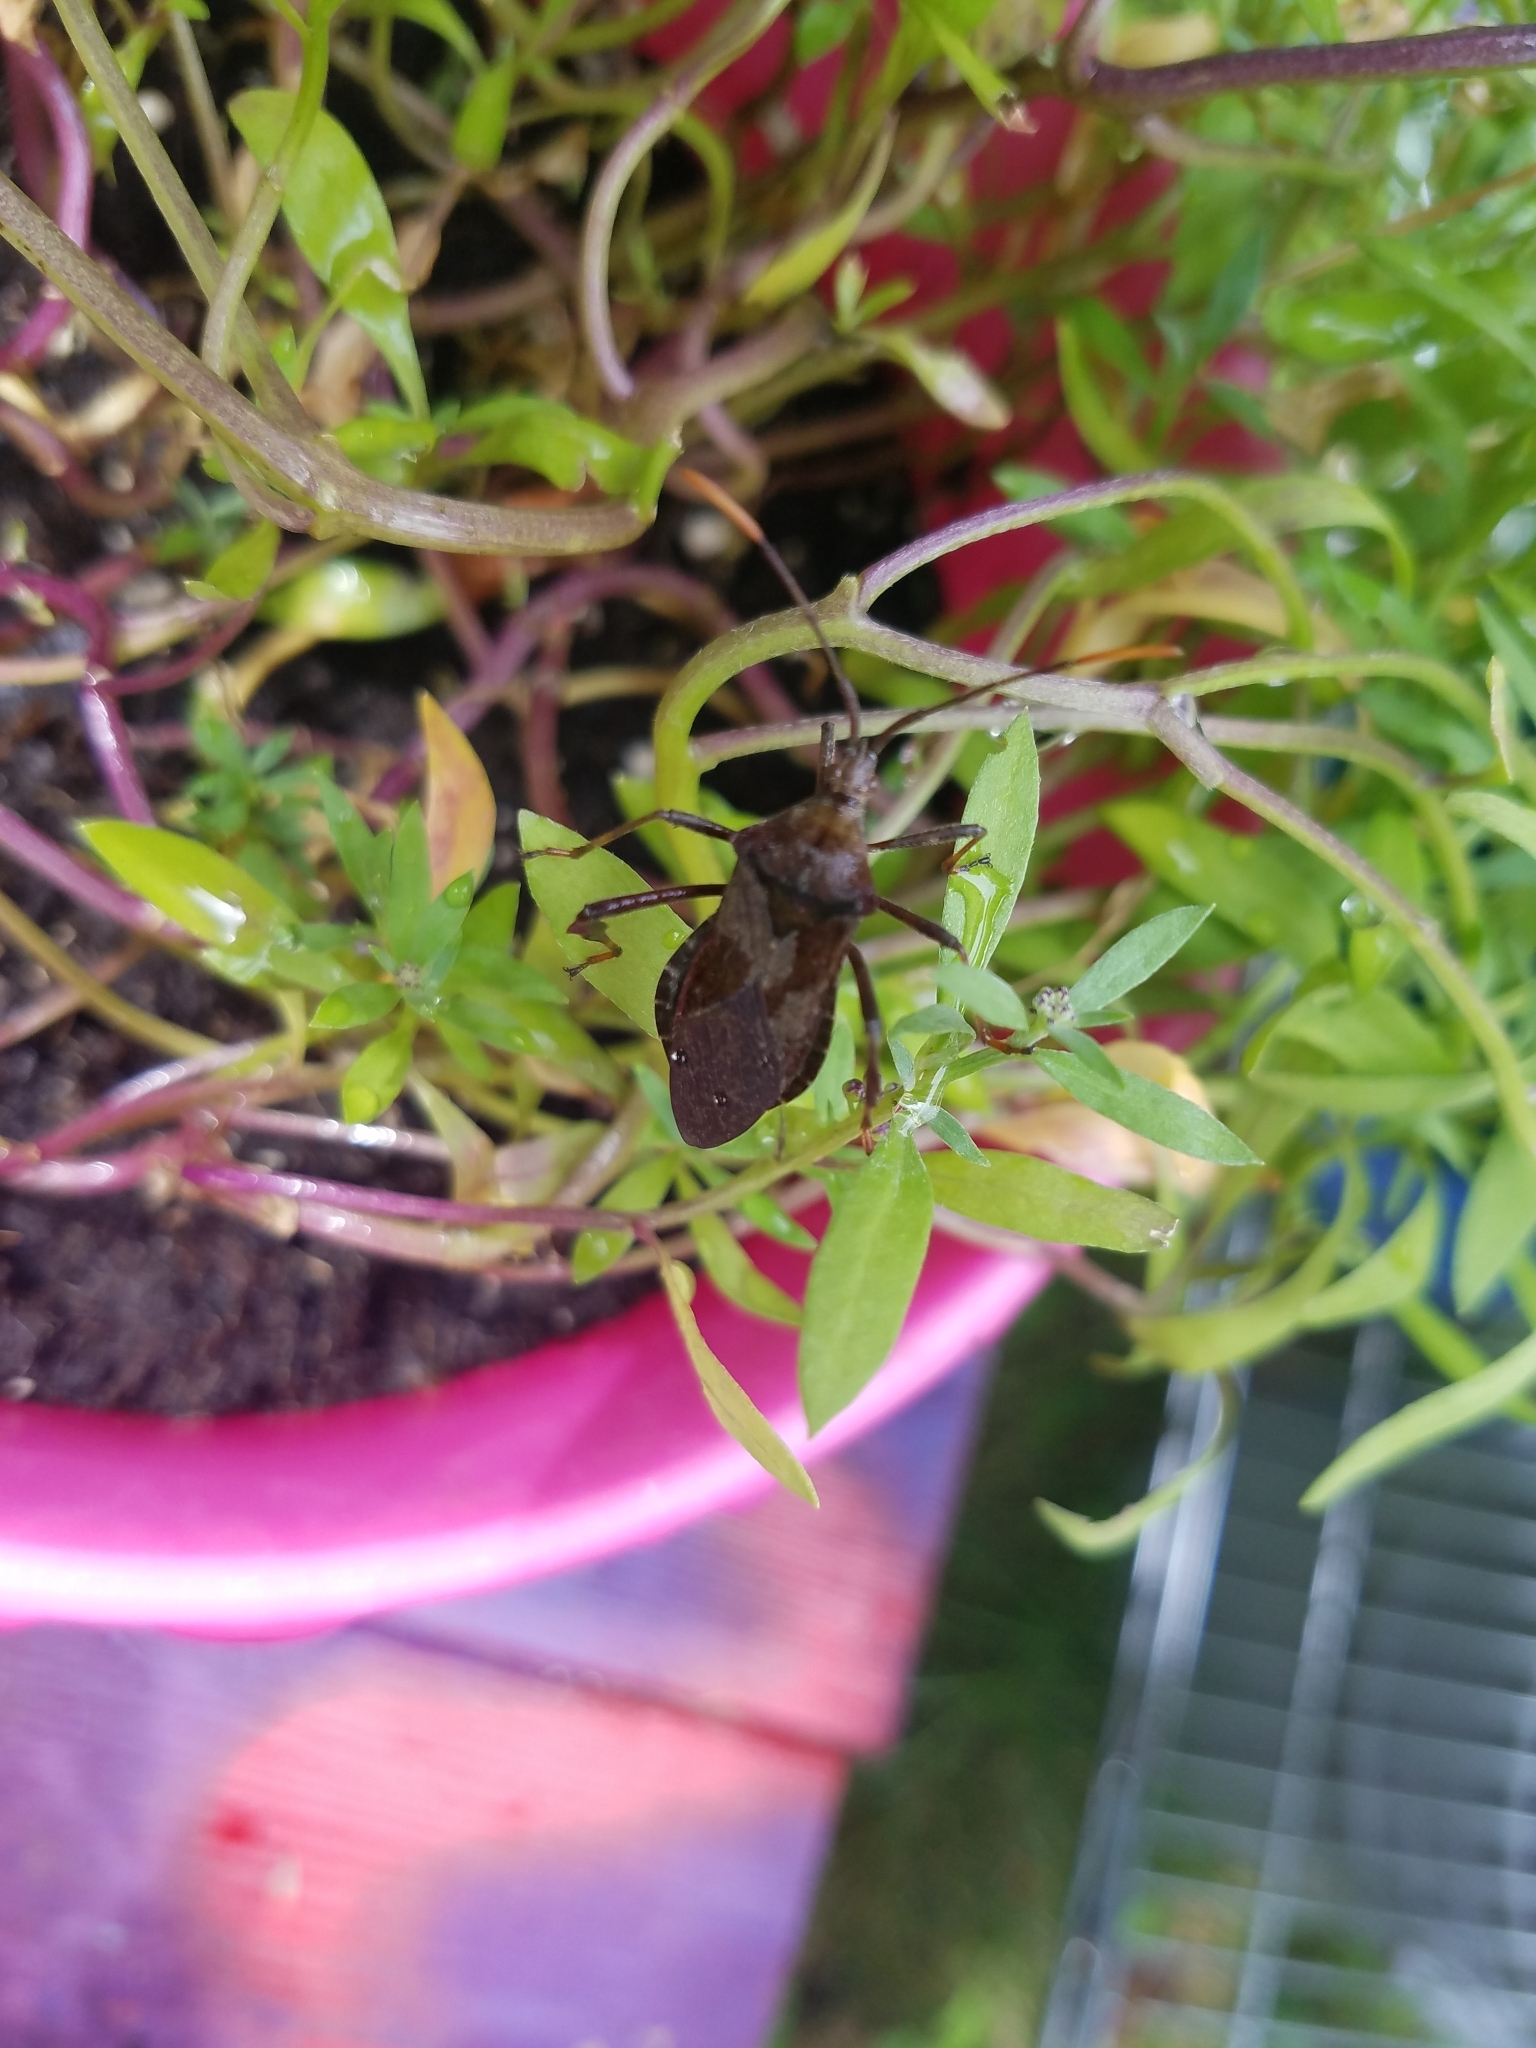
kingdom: Animalia
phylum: Arthropoda
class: Insecta
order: Hemiptera
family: Coreidae
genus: Acanthocephala
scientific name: Acanthocephala terminalis
